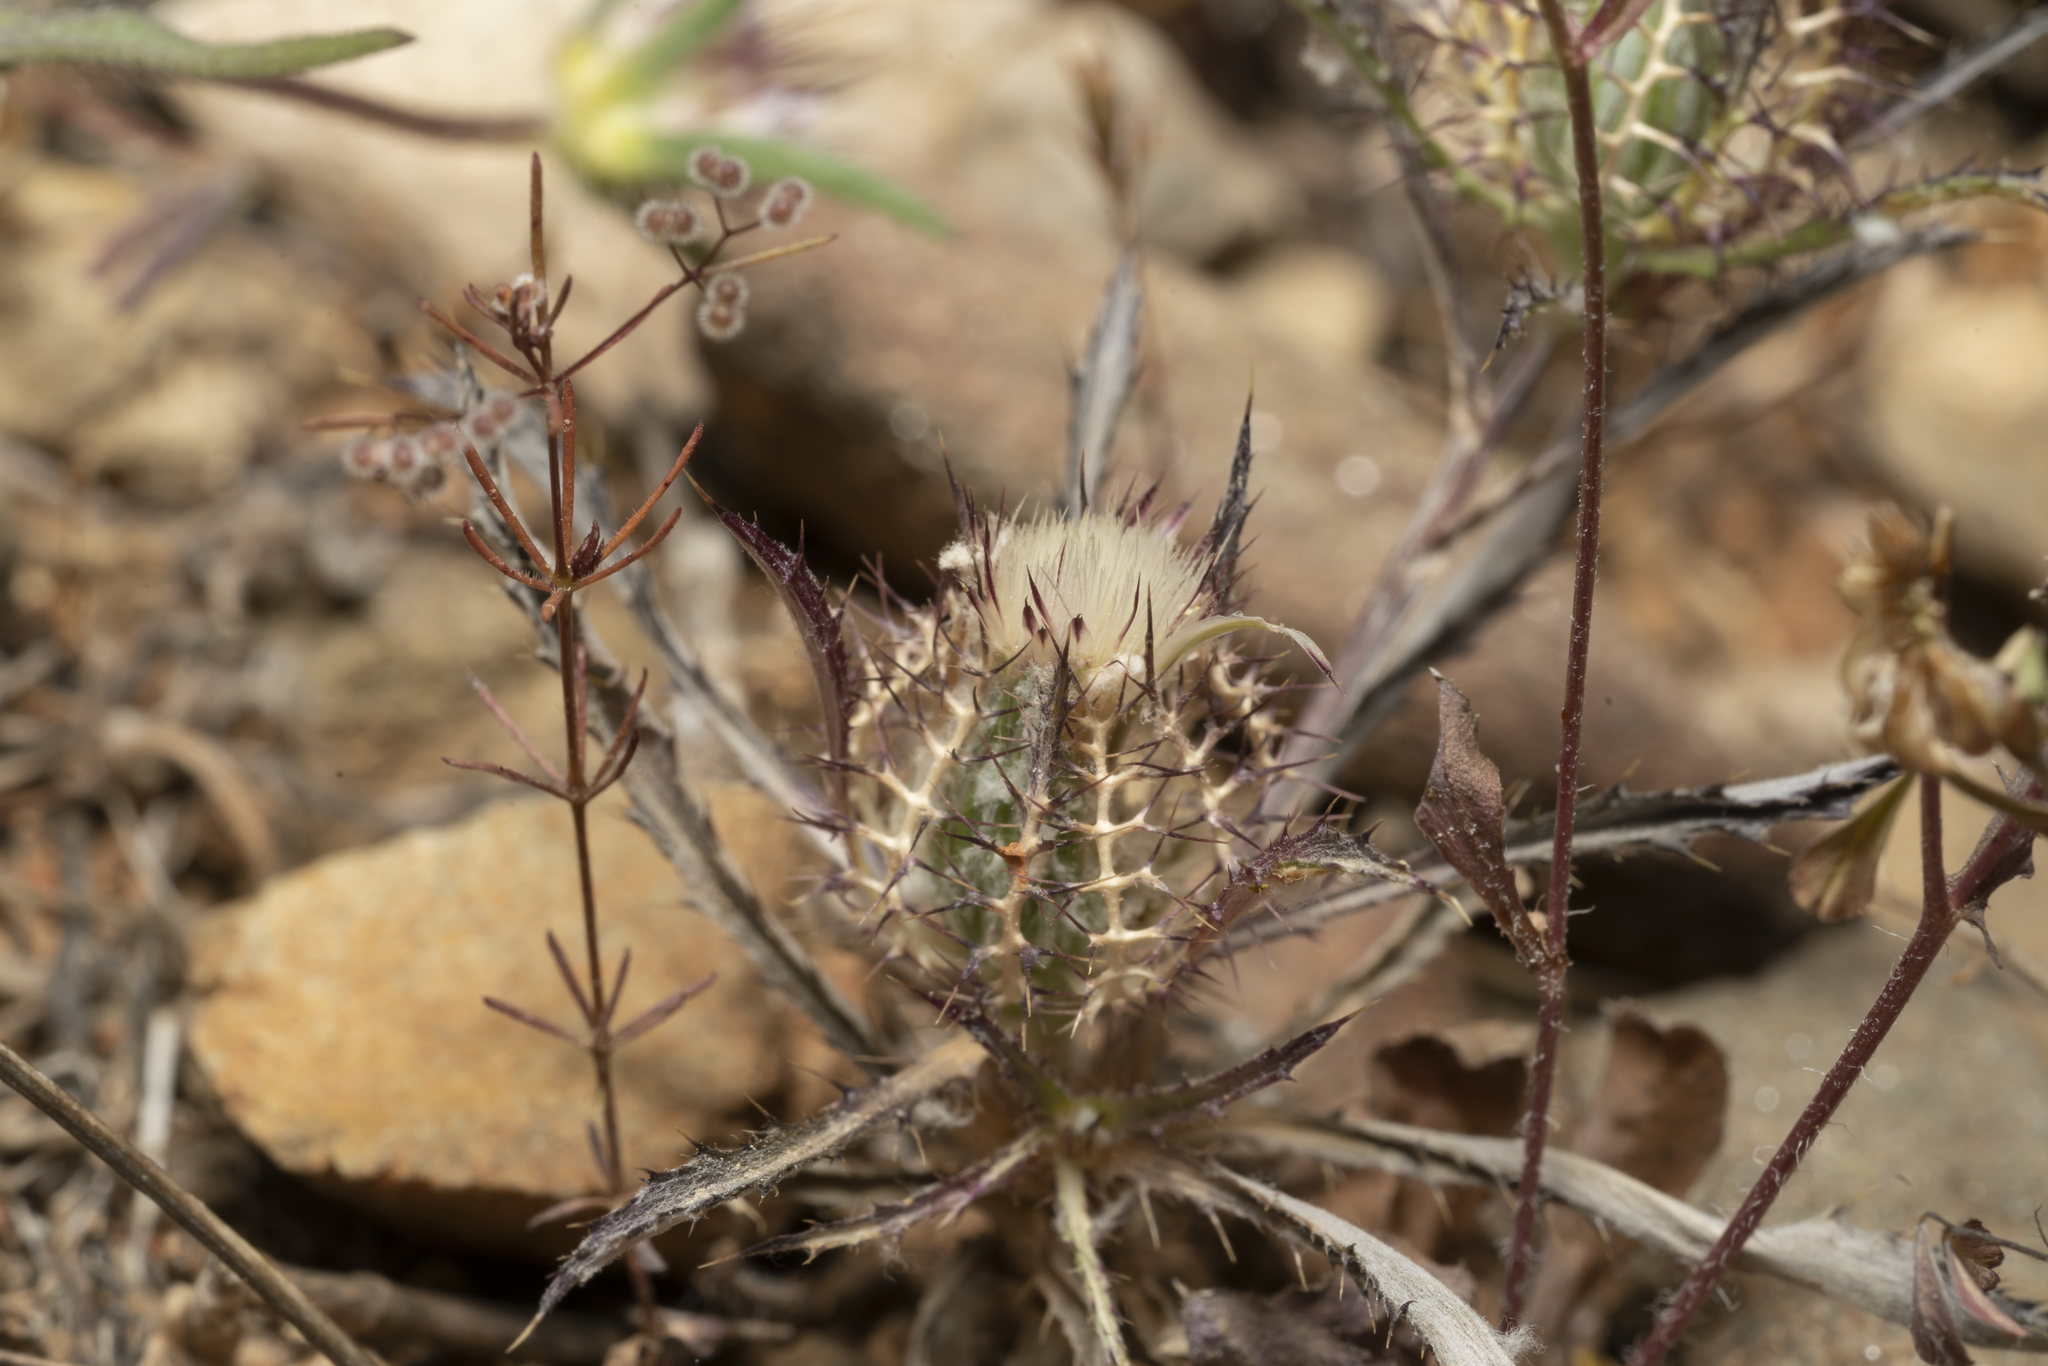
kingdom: Plantae
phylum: Tracheophyta
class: Magnoliopsida
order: Asterales
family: Asteraceae
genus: Atractylis
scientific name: Atractylis cancellata
